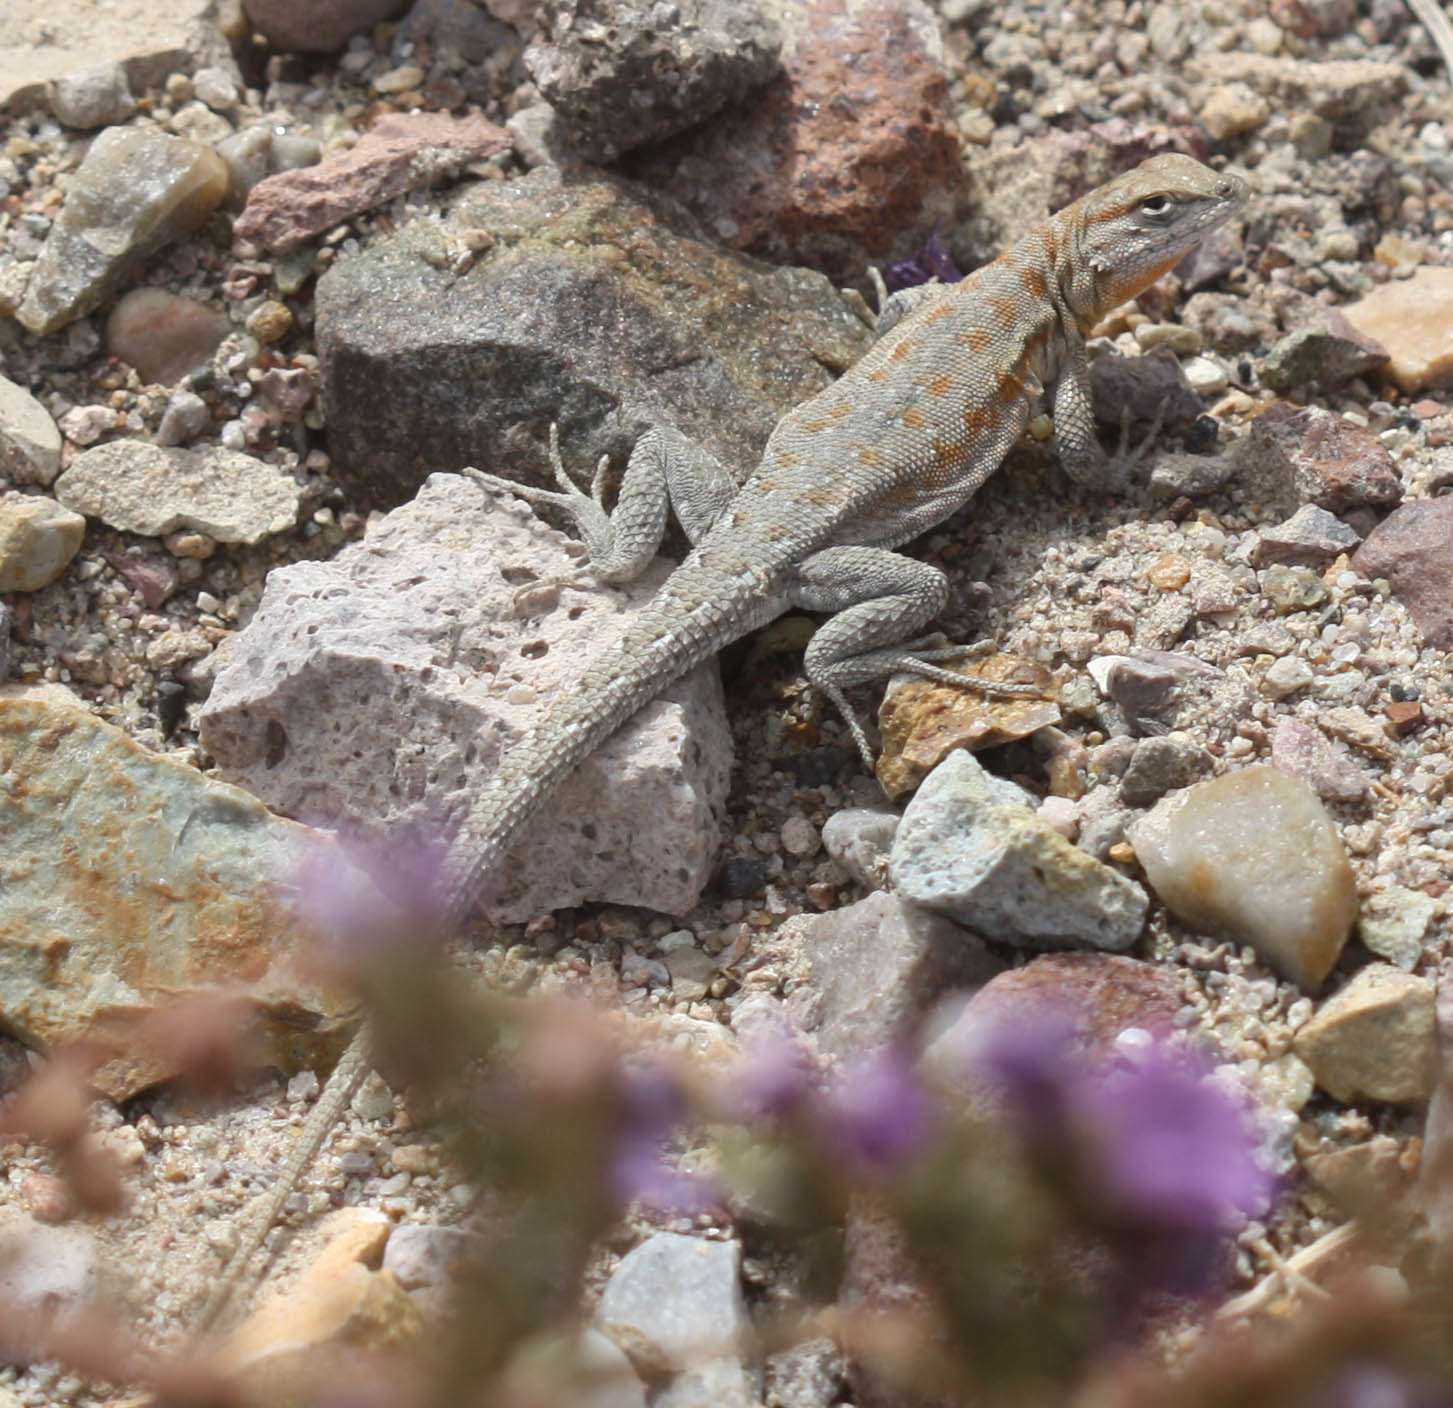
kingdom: Animalia
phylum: Chordata
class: Squamata
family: Phrynosomatidae
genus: Uta
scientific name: Uta stansburiana
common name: Side-blotched lizard
